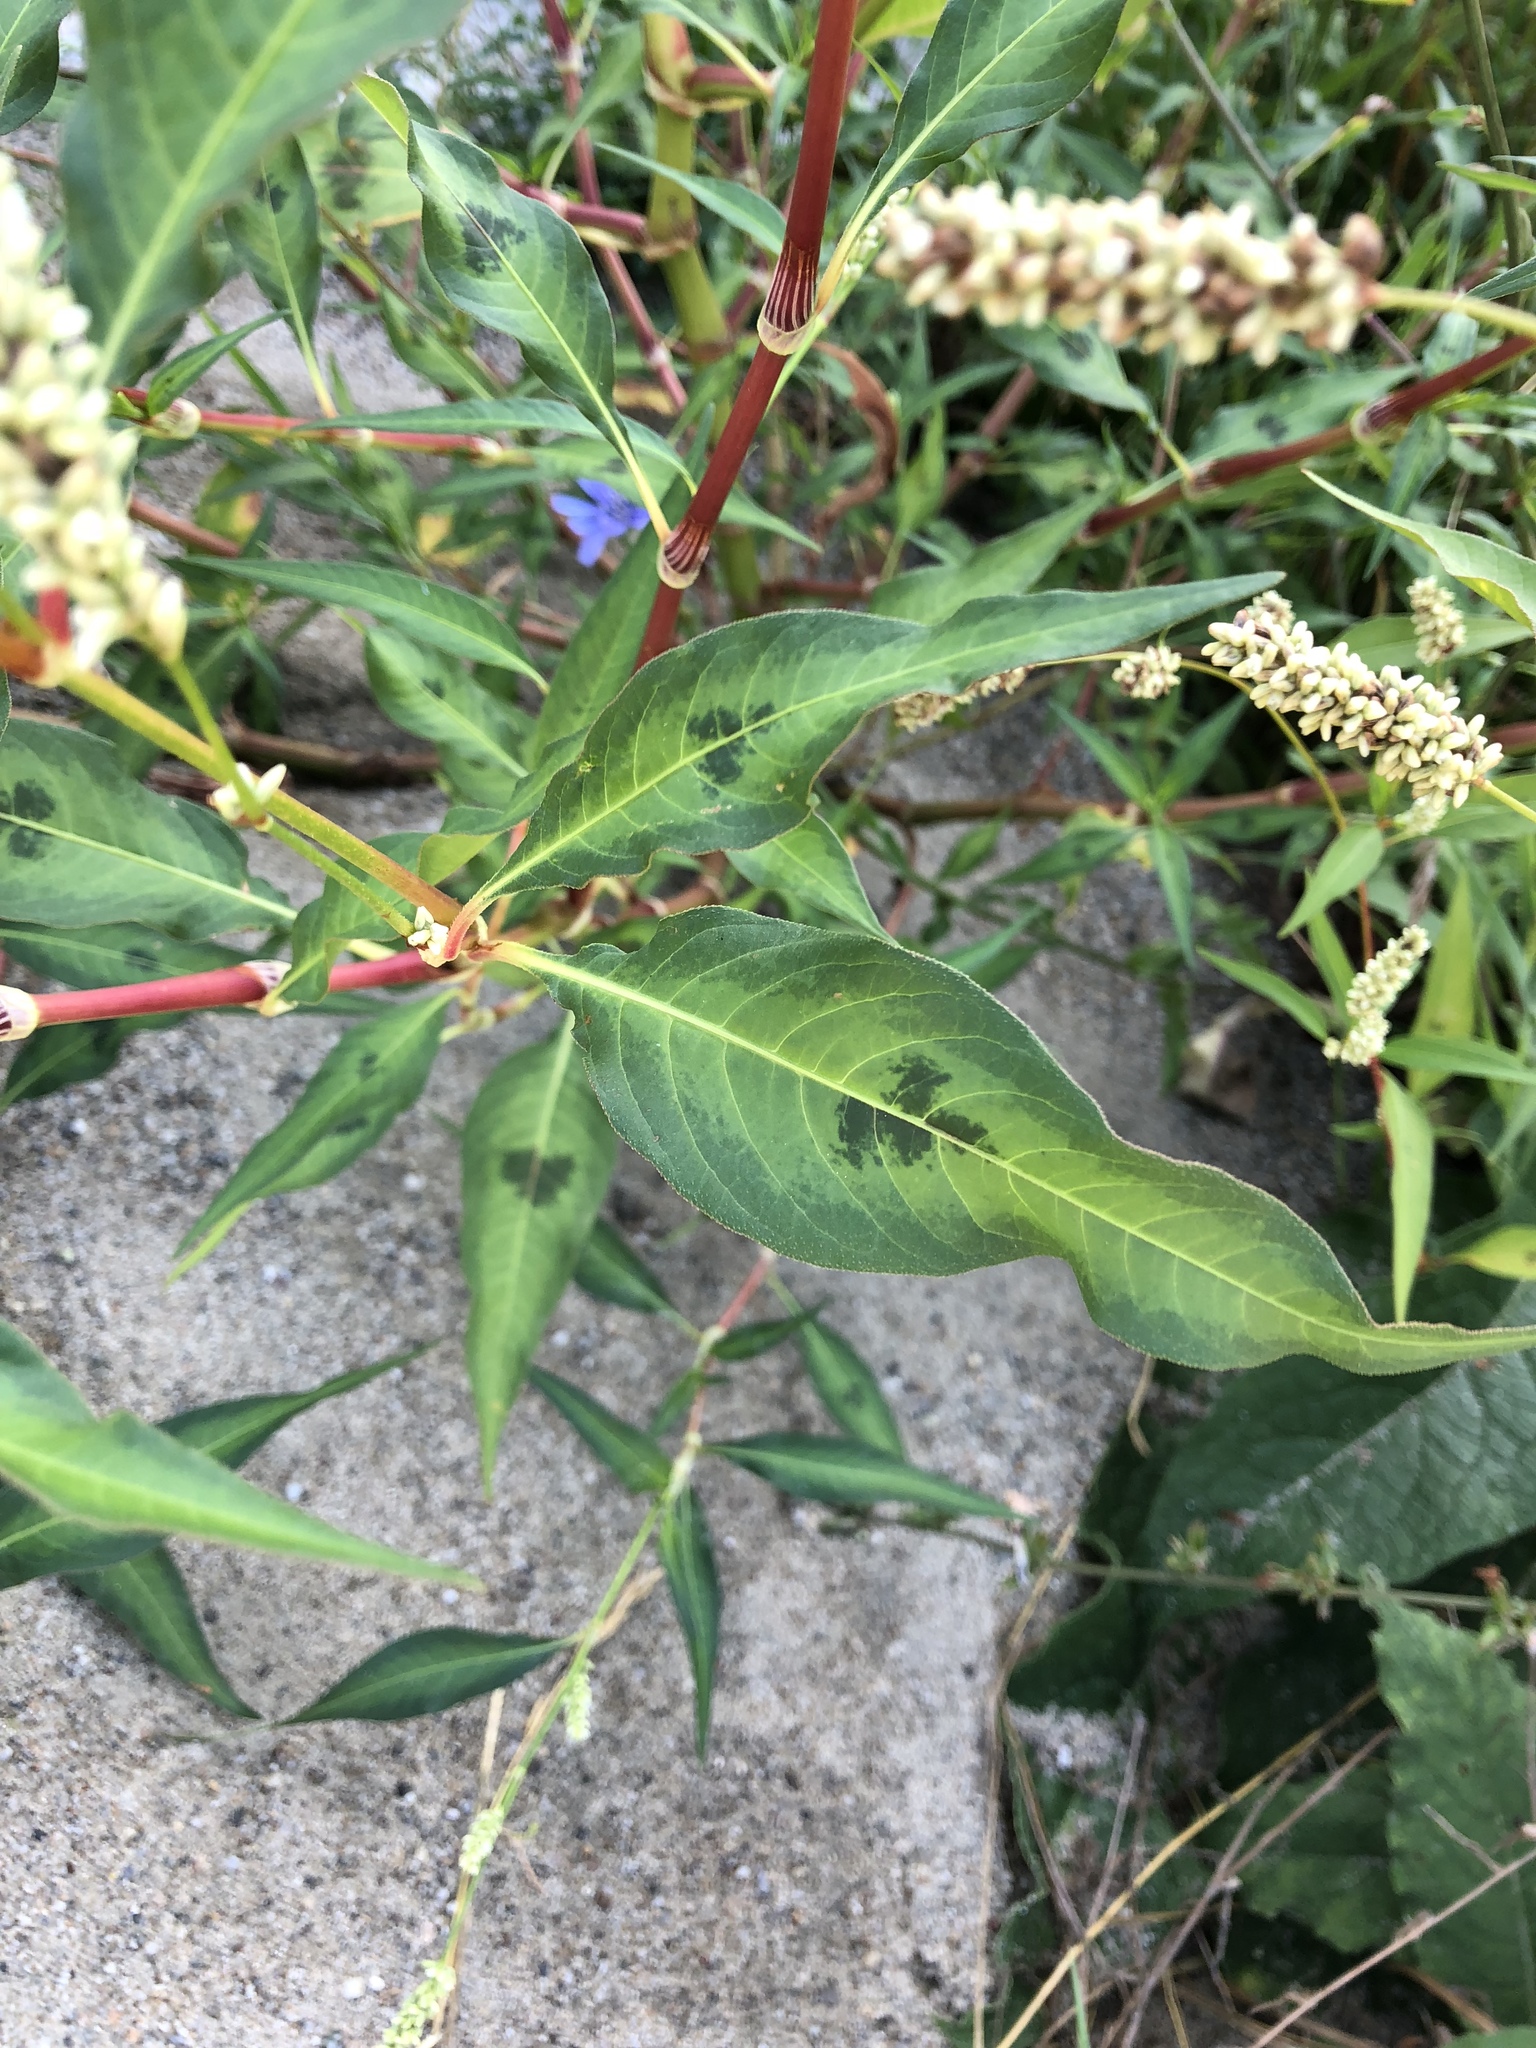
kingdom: Plantae
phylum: Tracheophyta
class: Magnoliopsida
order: Caryophyllales
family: Polygonaceae
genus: Persicaria
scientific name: Persicaria lapathifolia
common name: Curlytop knotweed
